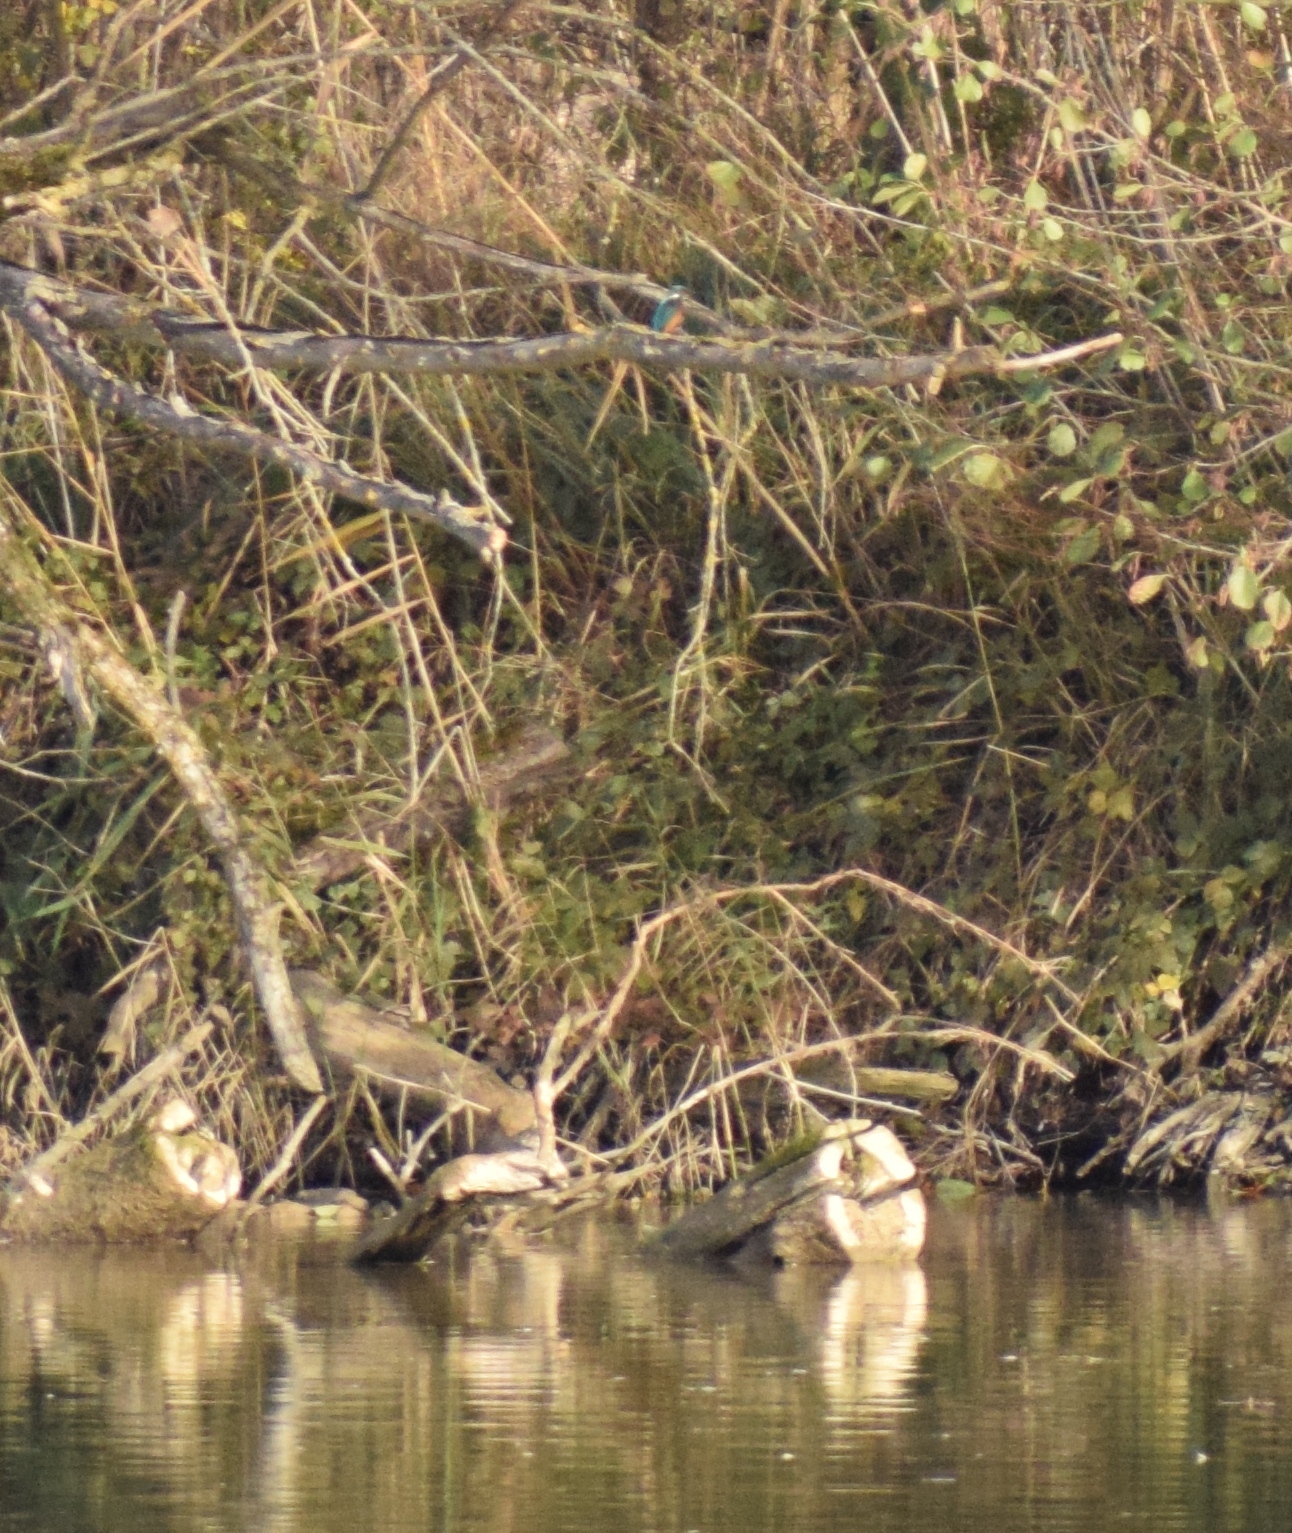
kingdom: Animalia
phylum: Chordata
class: Aves
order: Coraciiformes
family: Alcedinidae
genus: Alcedo
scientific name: Alcedo atthis
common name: Common kingfisher
